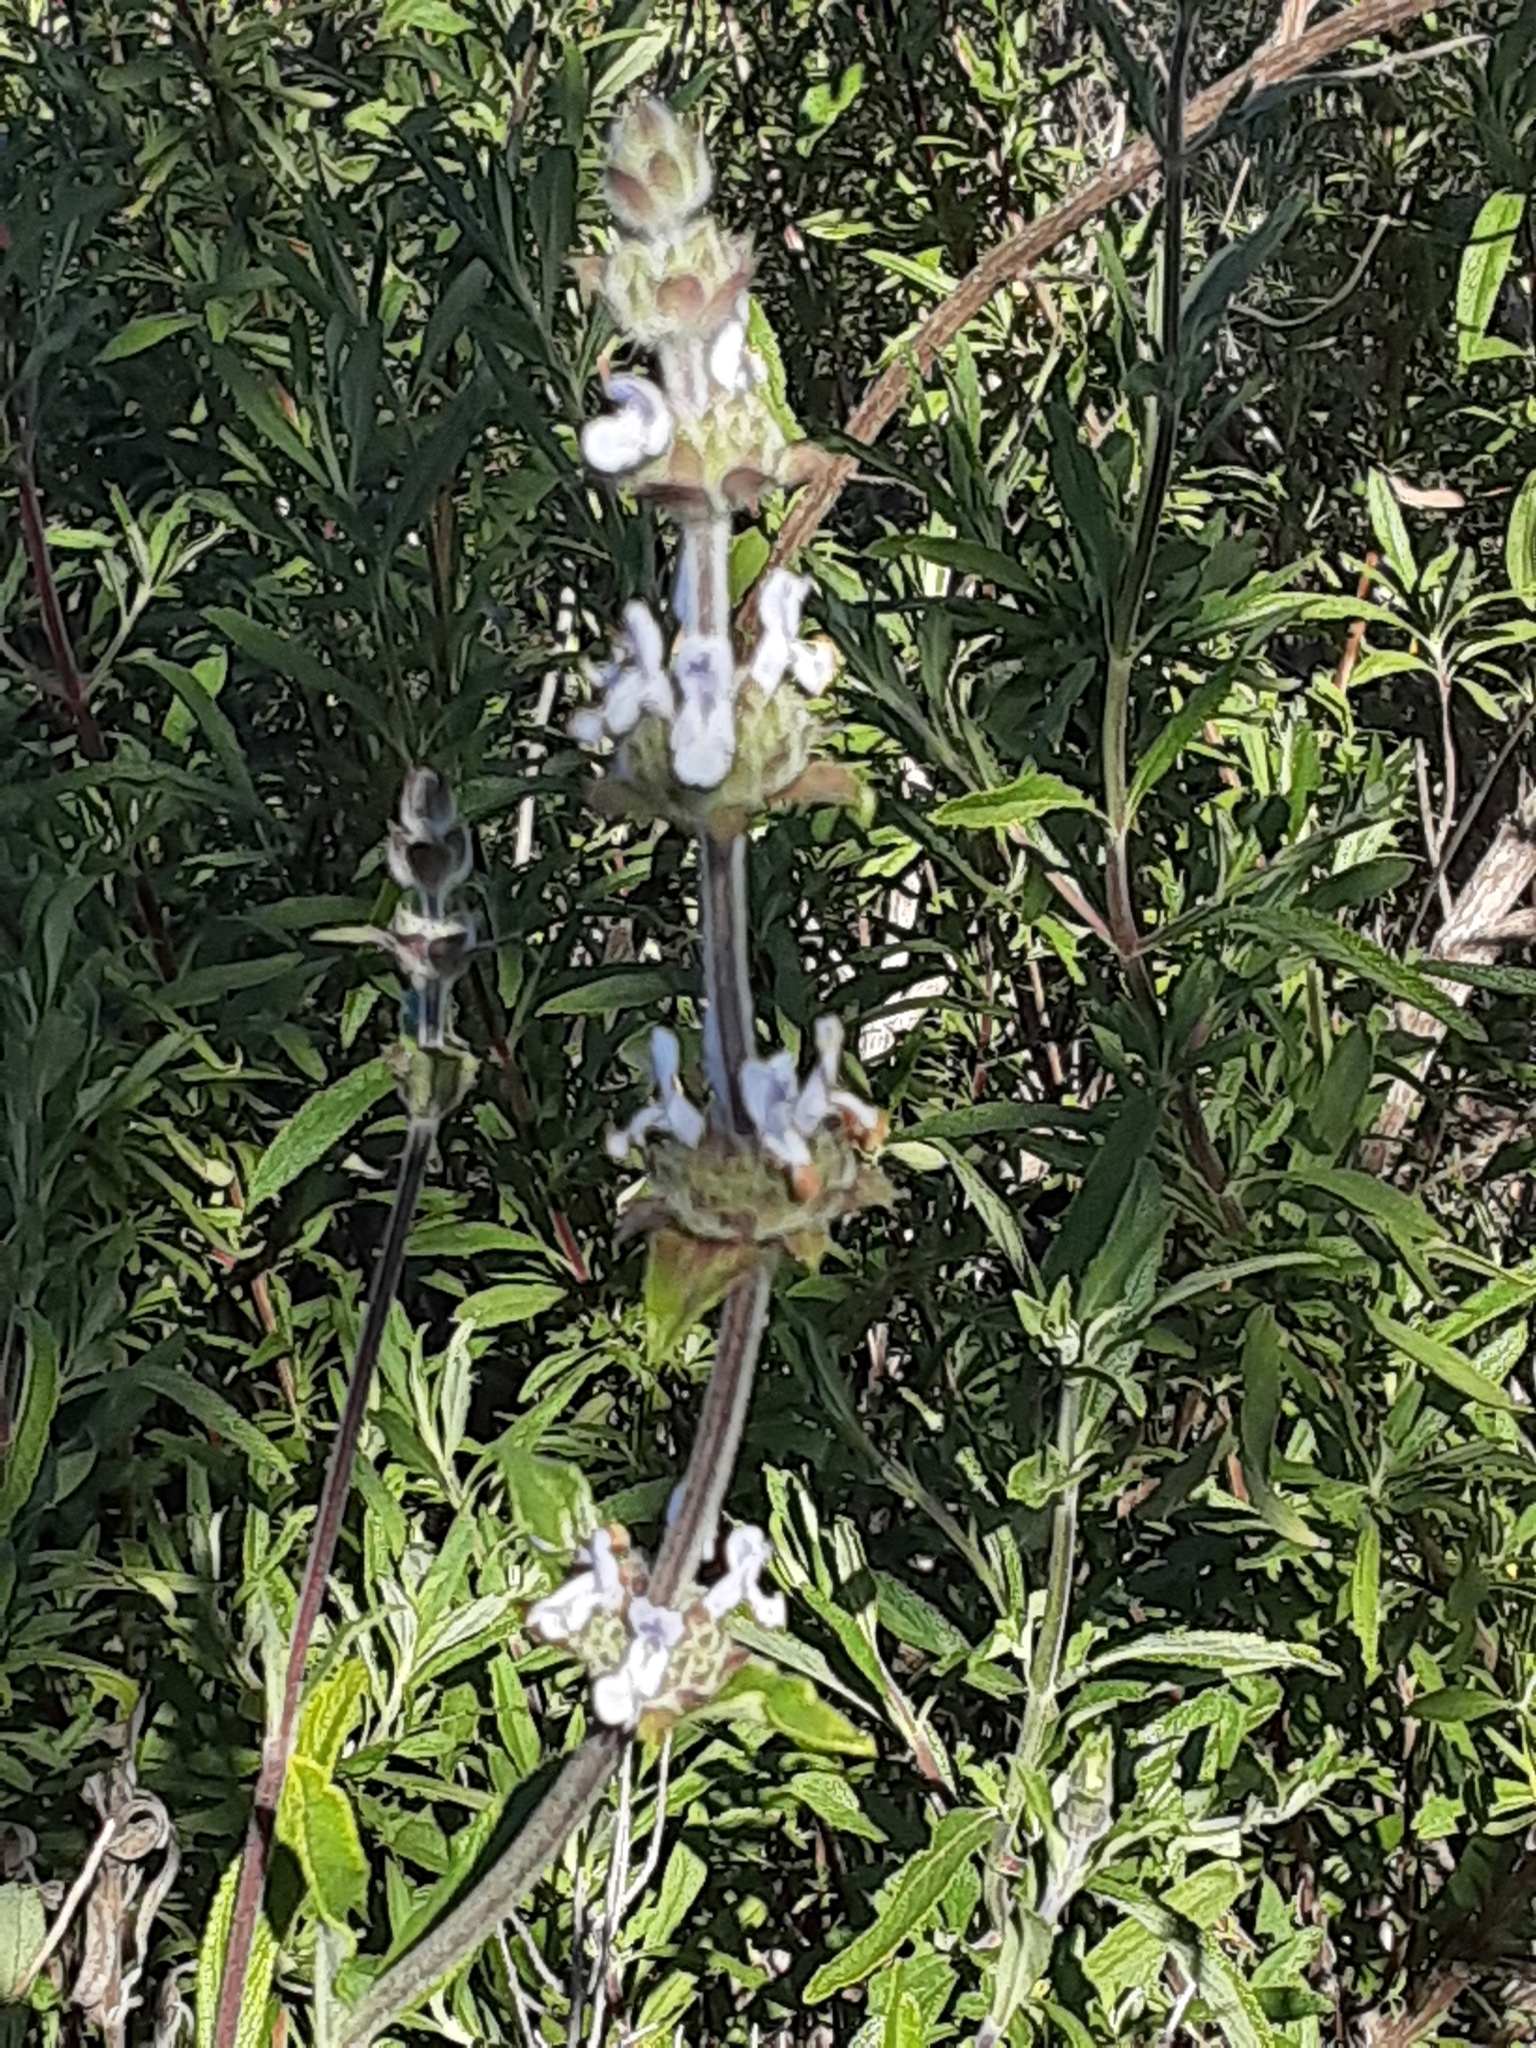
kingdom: Plantae
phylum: Tracheophyta
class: Magnoliopsida
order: Lamiales
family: Lamiaceae
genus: Salvia
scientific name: Salvia mellifera
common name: Black sage
